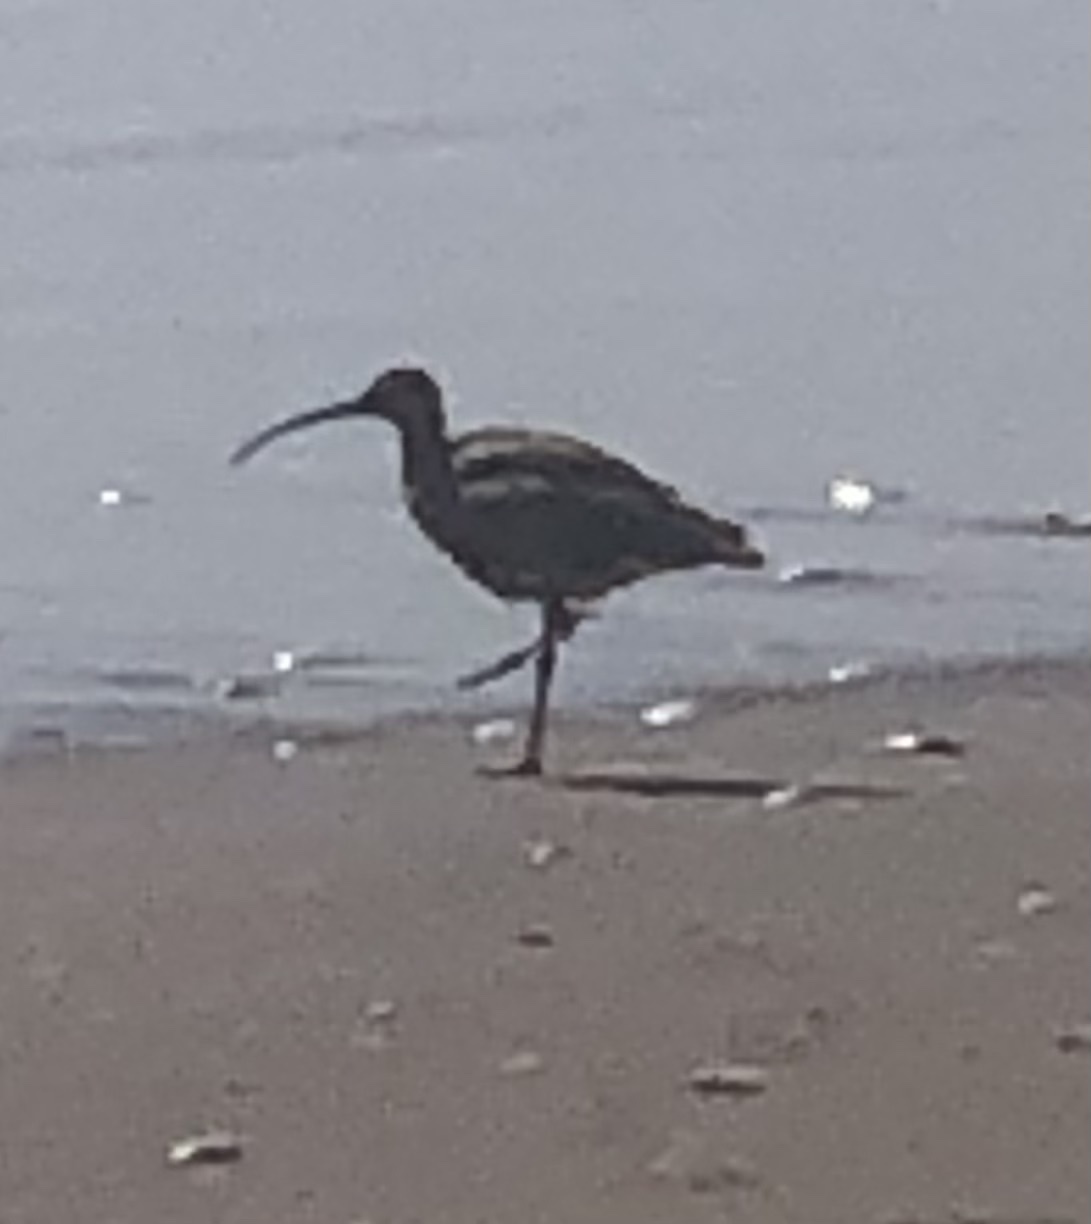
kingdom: Animalia
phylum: Chordata
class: Aves
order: Charadriiformes
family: Scolopacidae
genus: Numenius
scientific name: Numenius phaeopus
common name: Whimbrel
